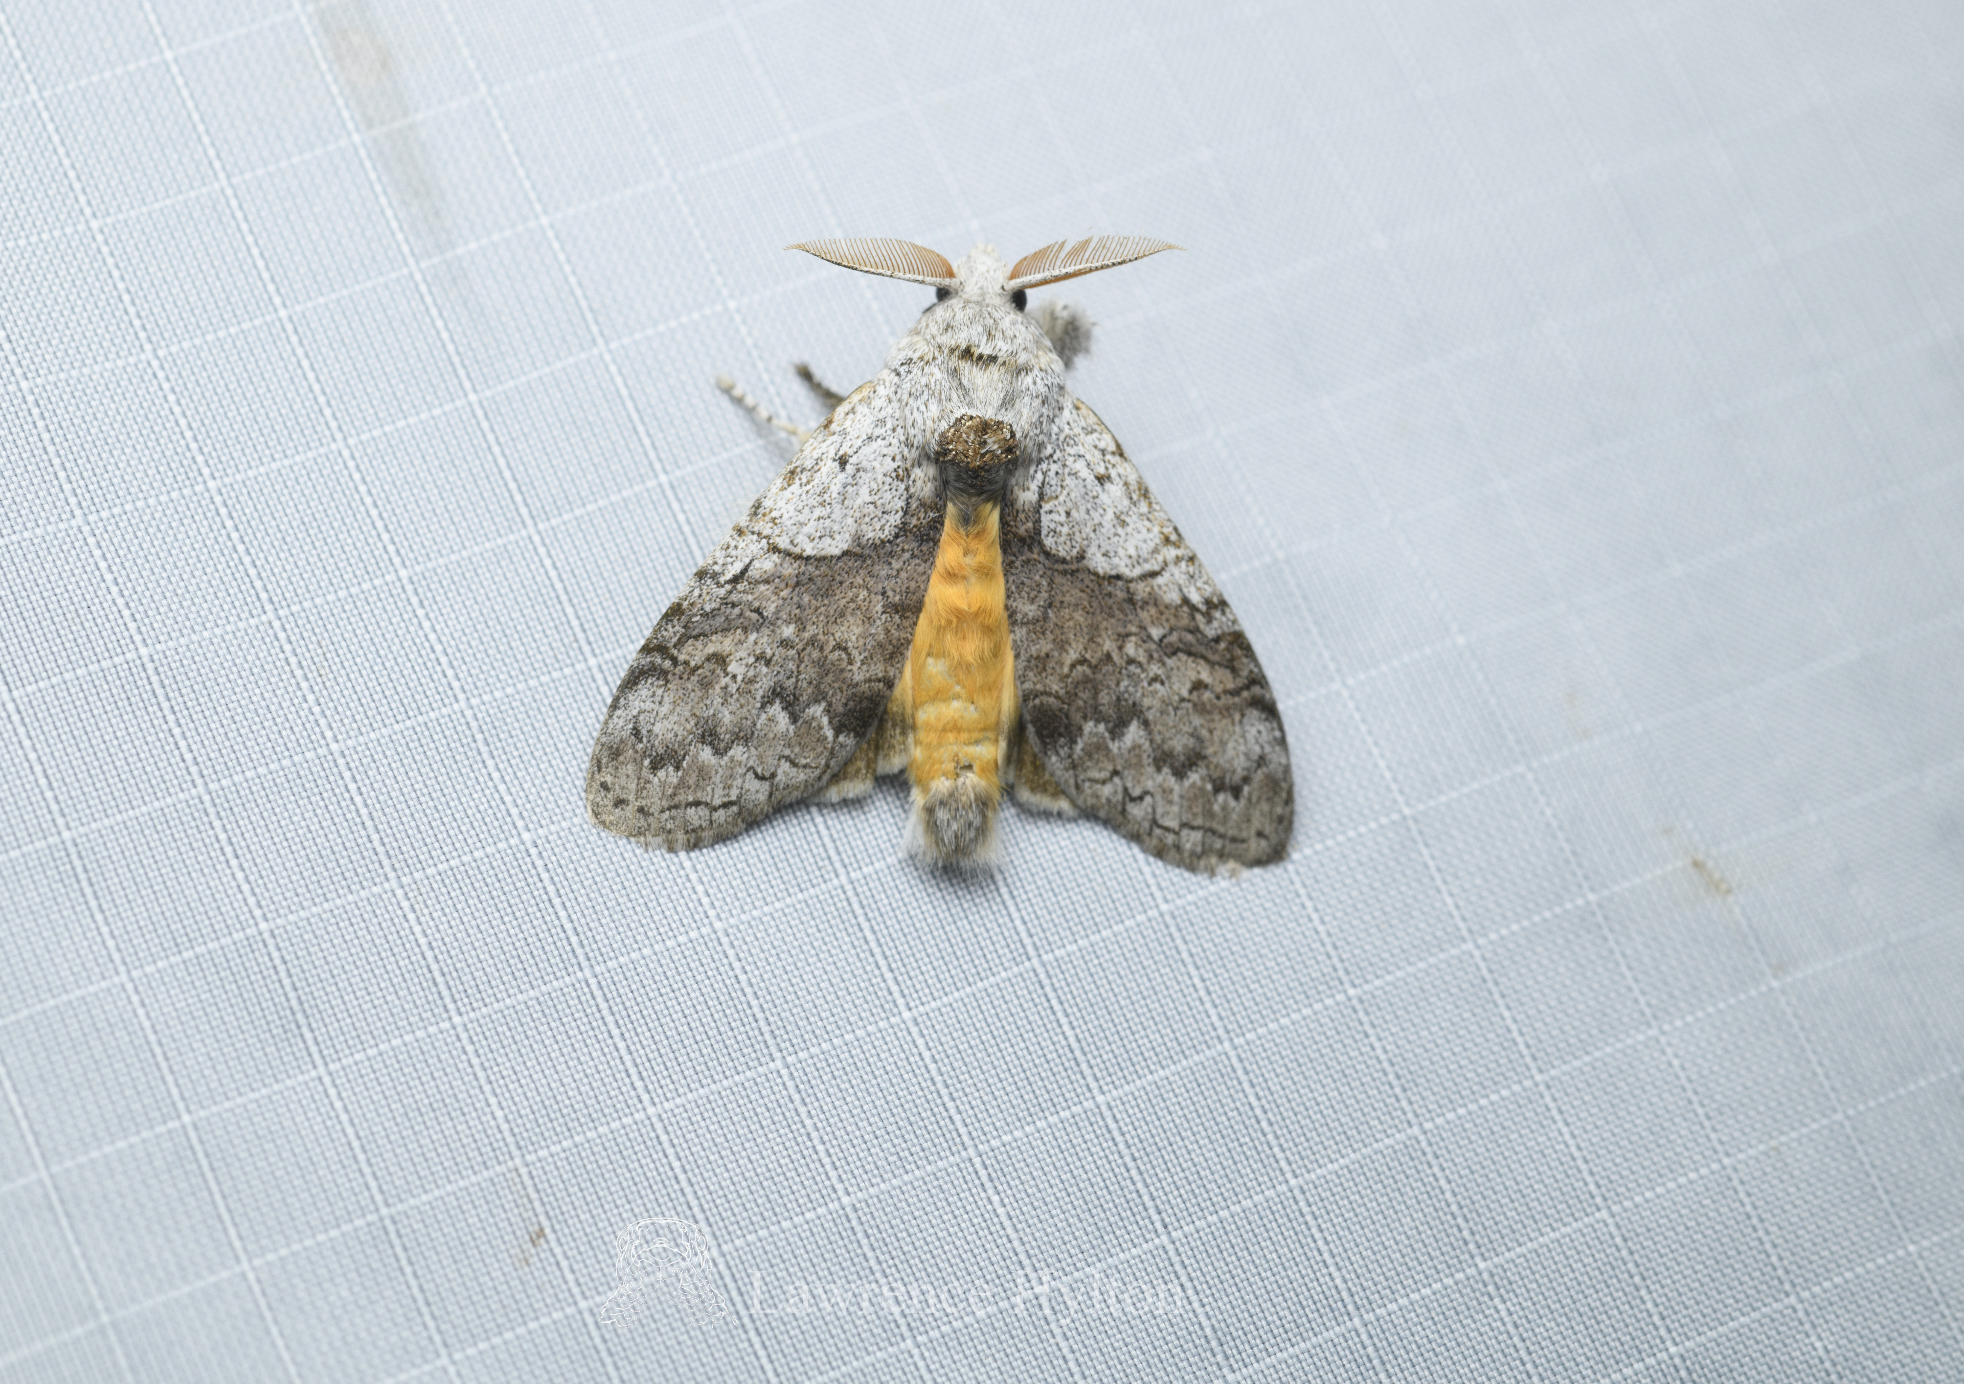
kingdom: Animalia
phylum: Arthropoda
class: Insecta
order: Lepidoptera
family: Erebidae
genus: Calliteara
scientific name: Calliteara grotei
